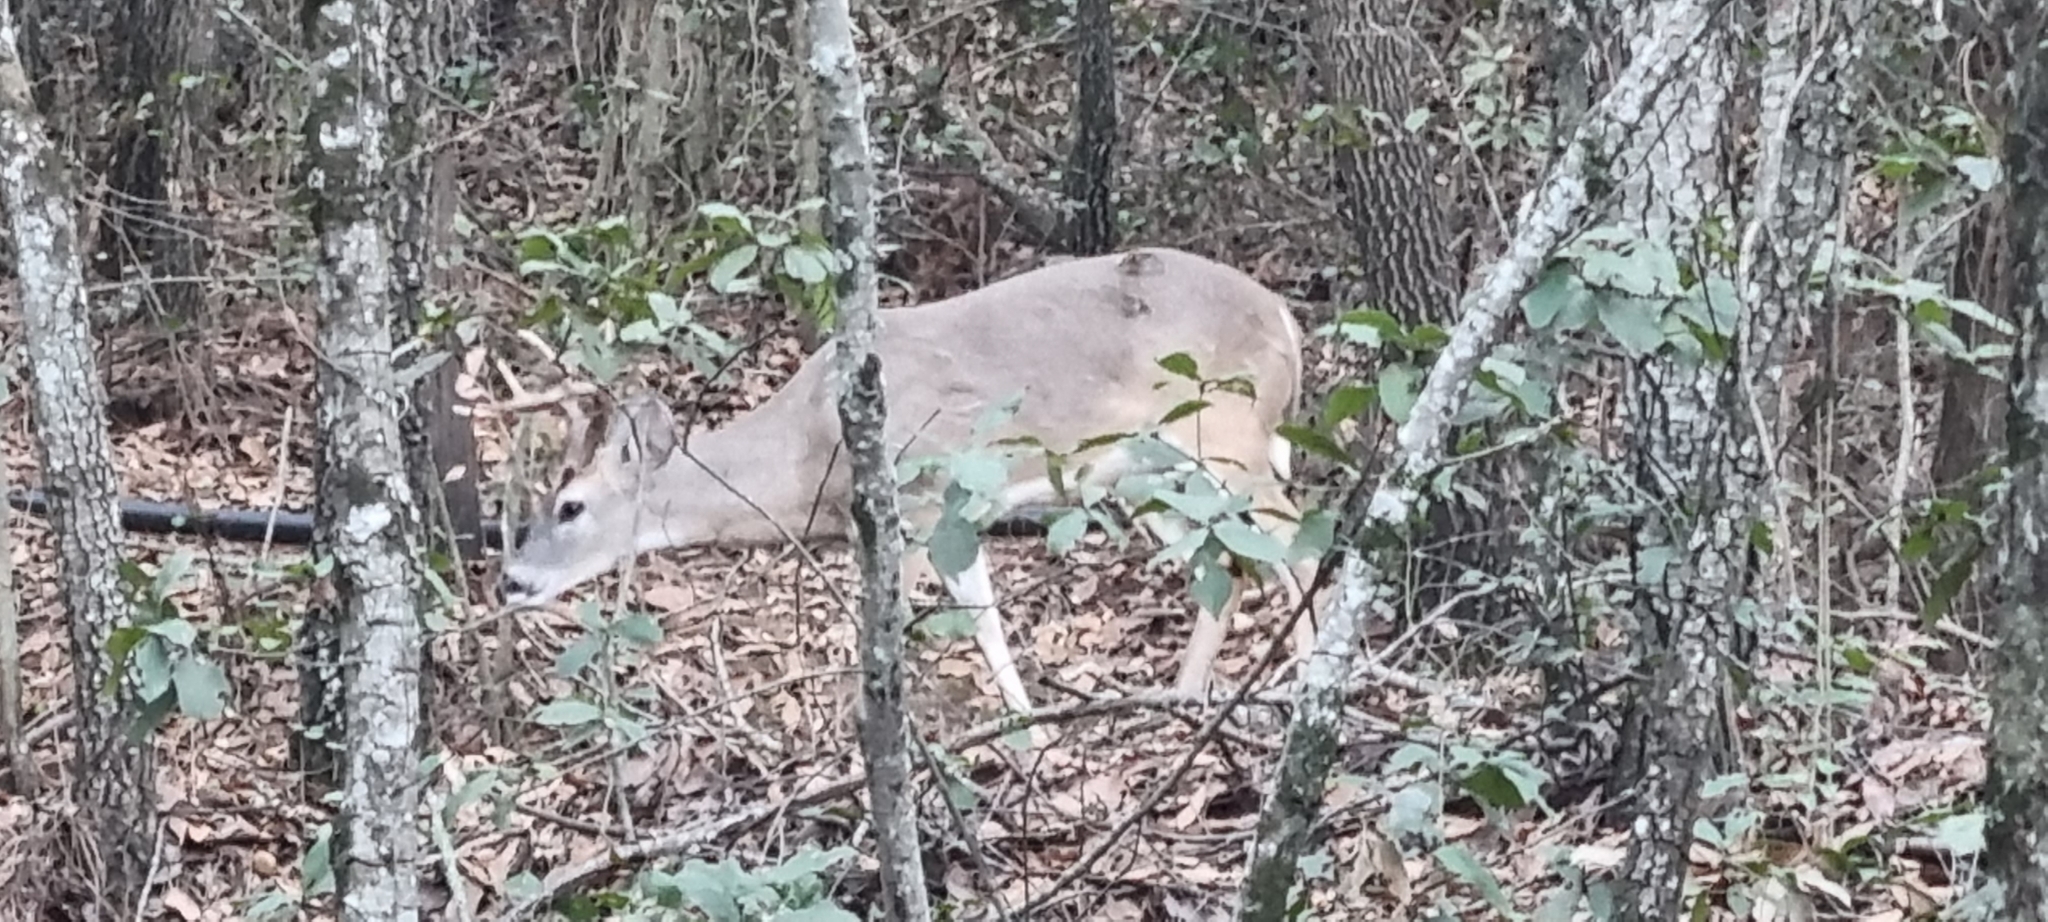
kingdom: Animalia
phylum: Chordata
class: Mammalia
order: Artiodactyla
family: Cervidae
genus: Odocoileus
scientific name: Odocoileus virginianus
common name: White-tailed deer
